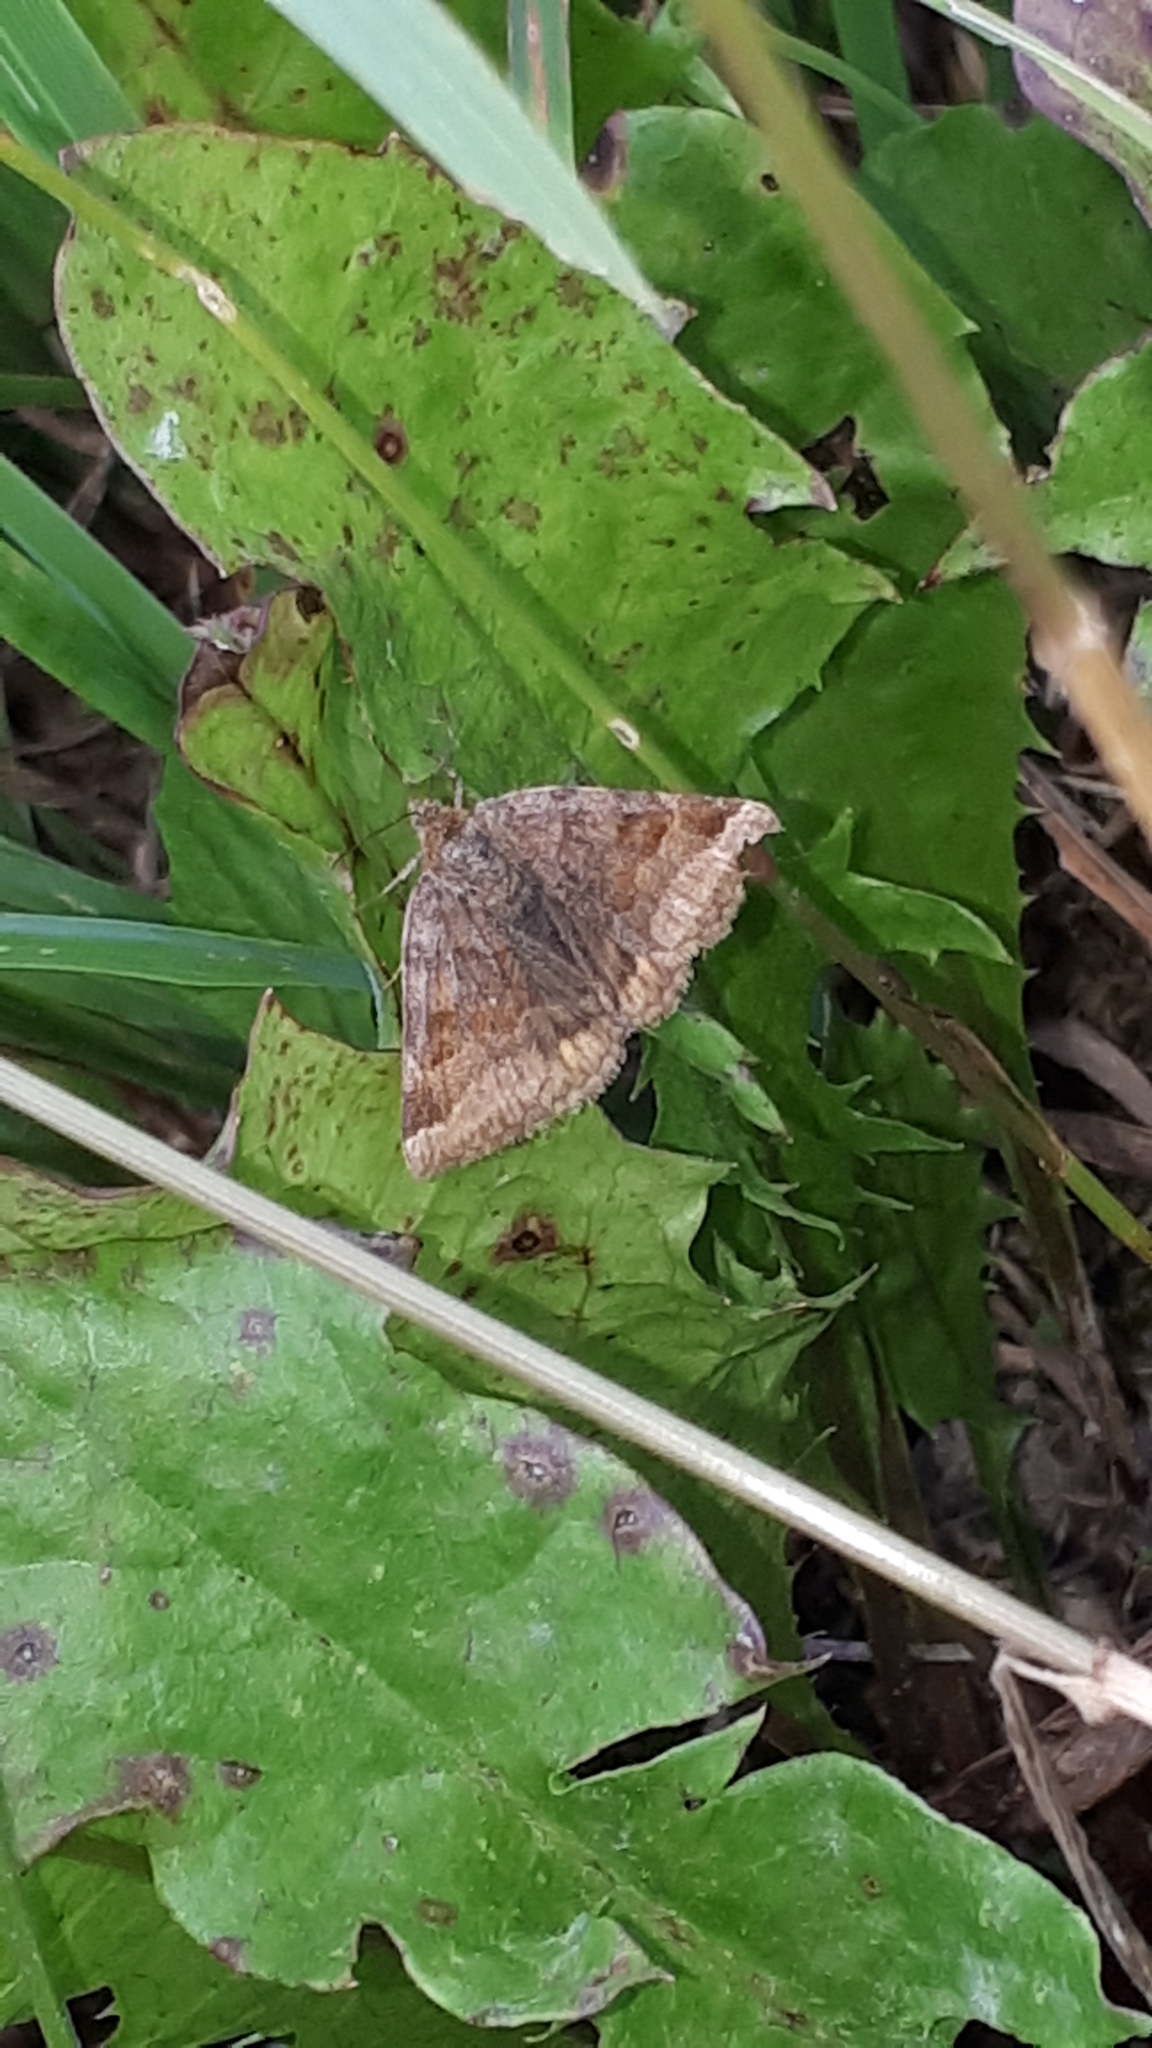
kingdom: Animalia
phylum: Arthropoda
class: Insecta
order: Lepidoptera
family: Erebidae
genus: Euclidia
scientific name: Euclidia glyphica
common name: Burnet companion
